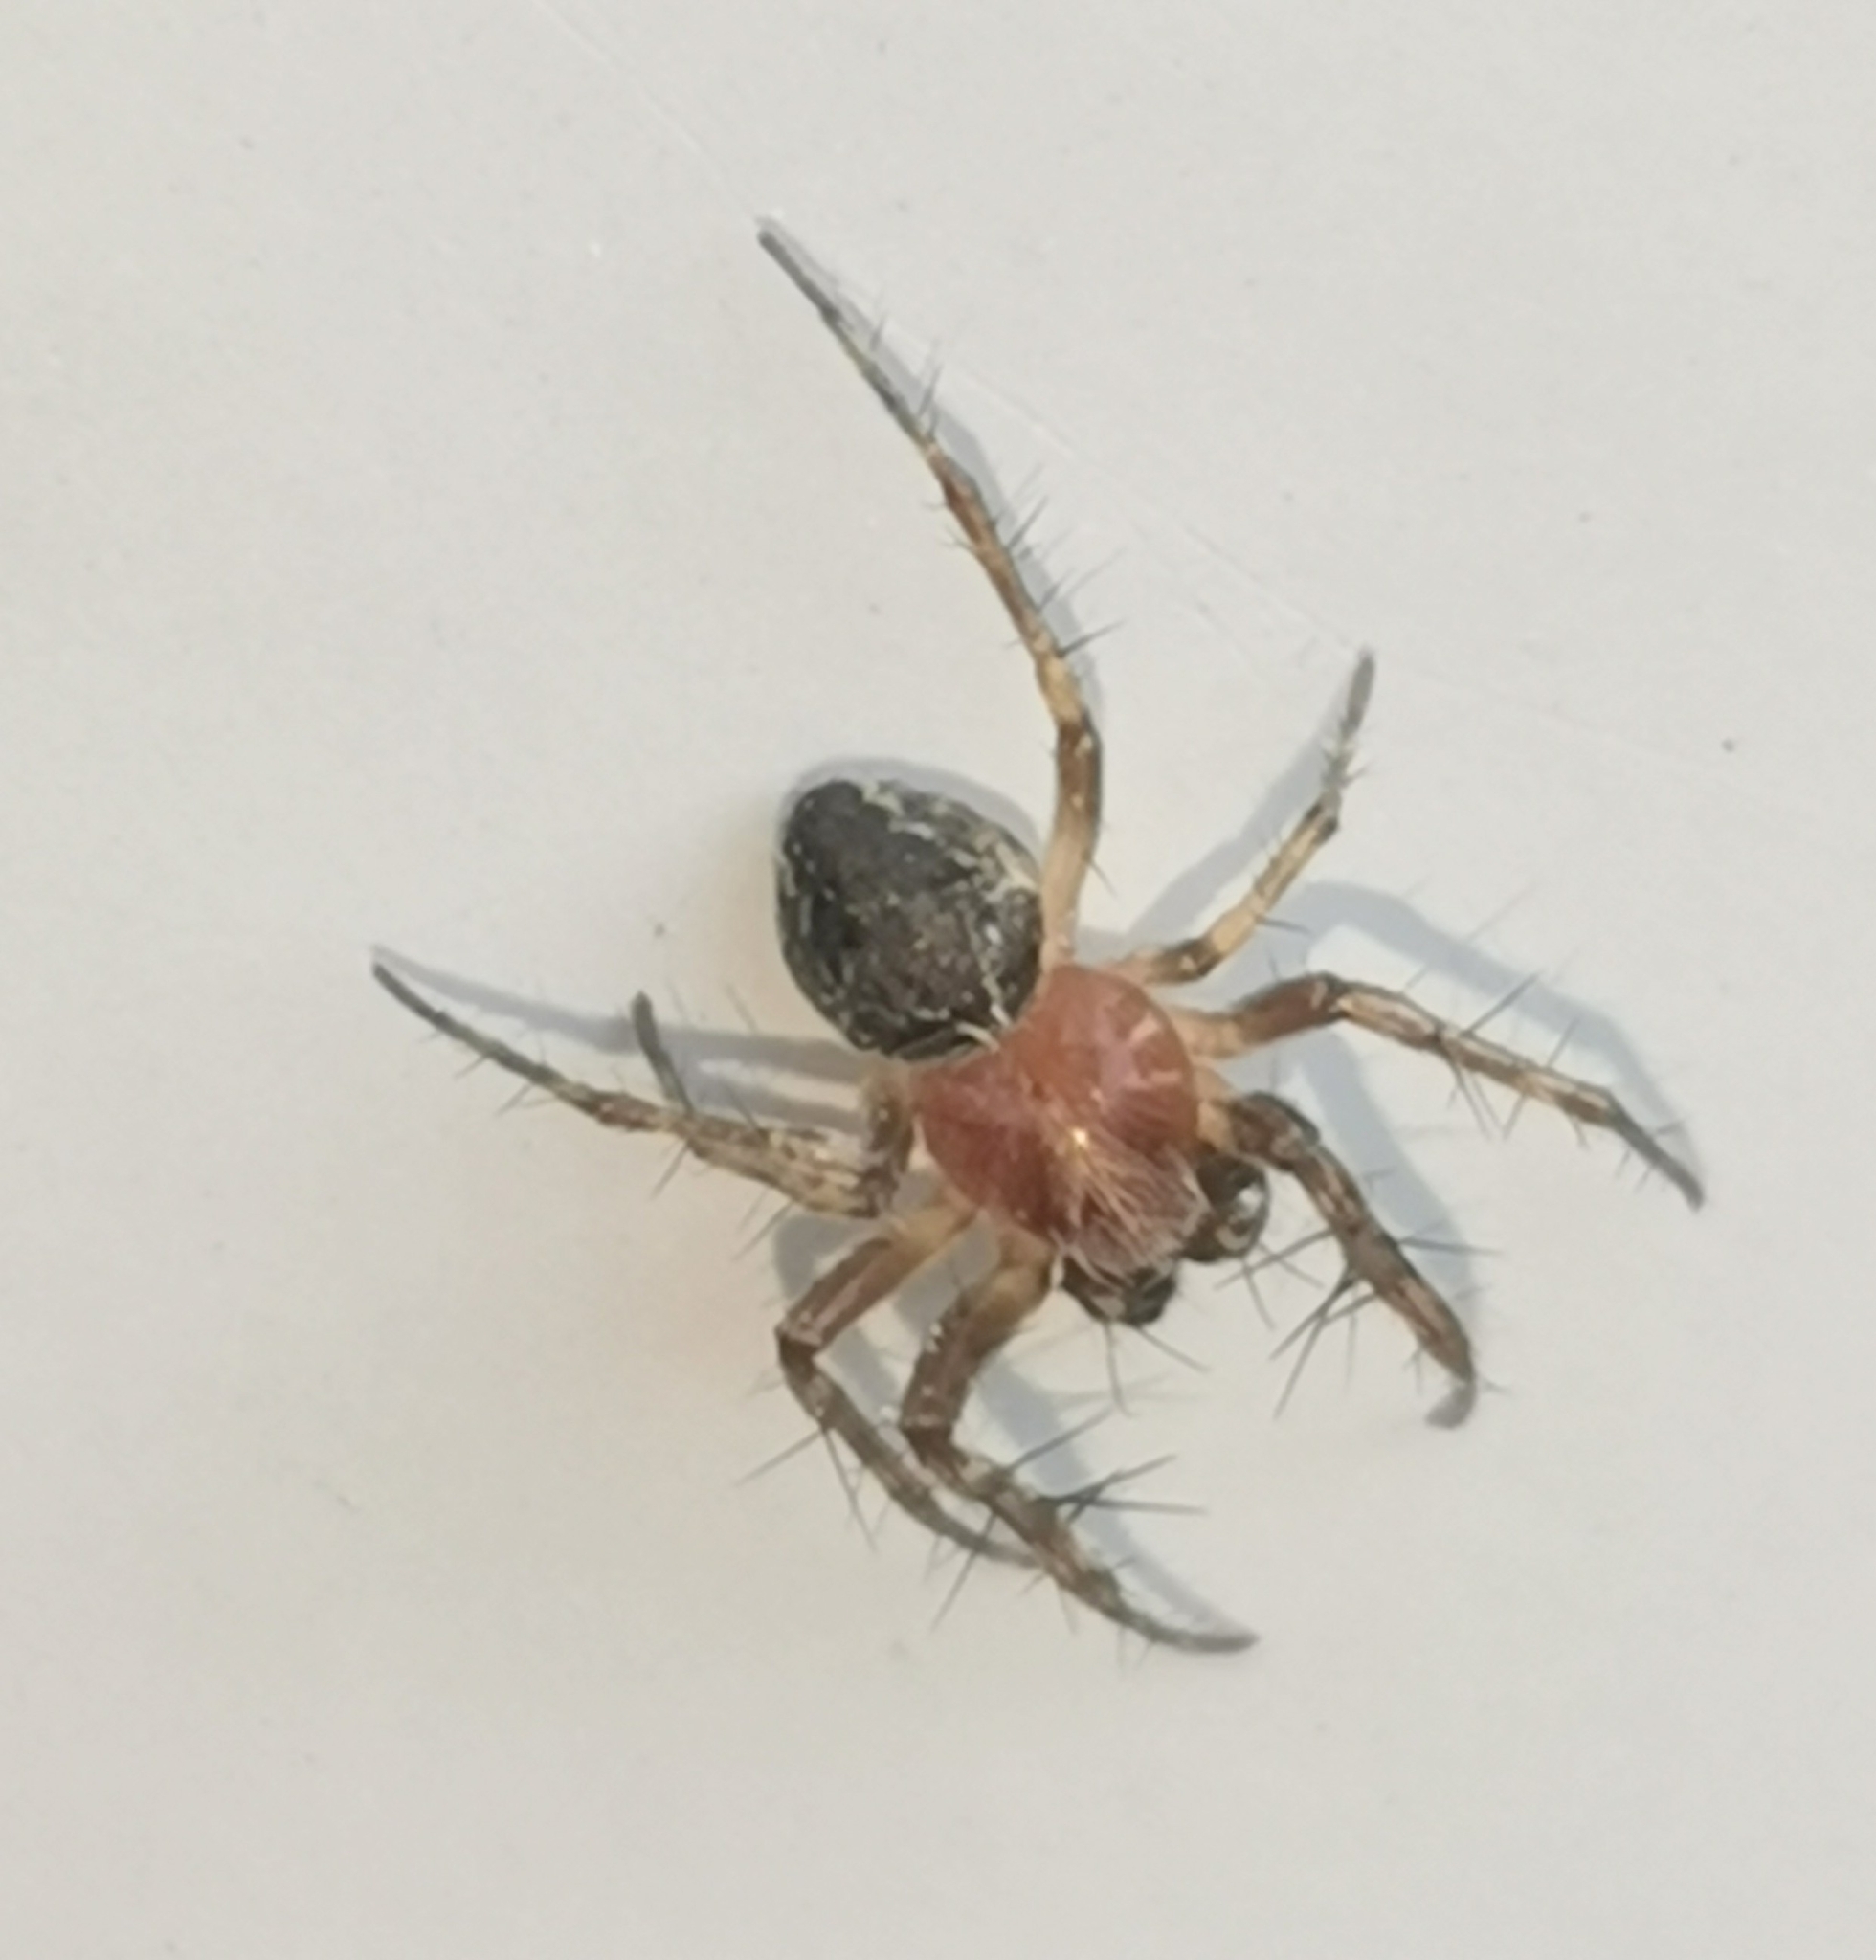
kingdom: Animalia
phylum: Arthropoda
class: Arachnida
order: Araneae
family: Araneidae
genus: Araneus
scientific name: Araneus sturmi
